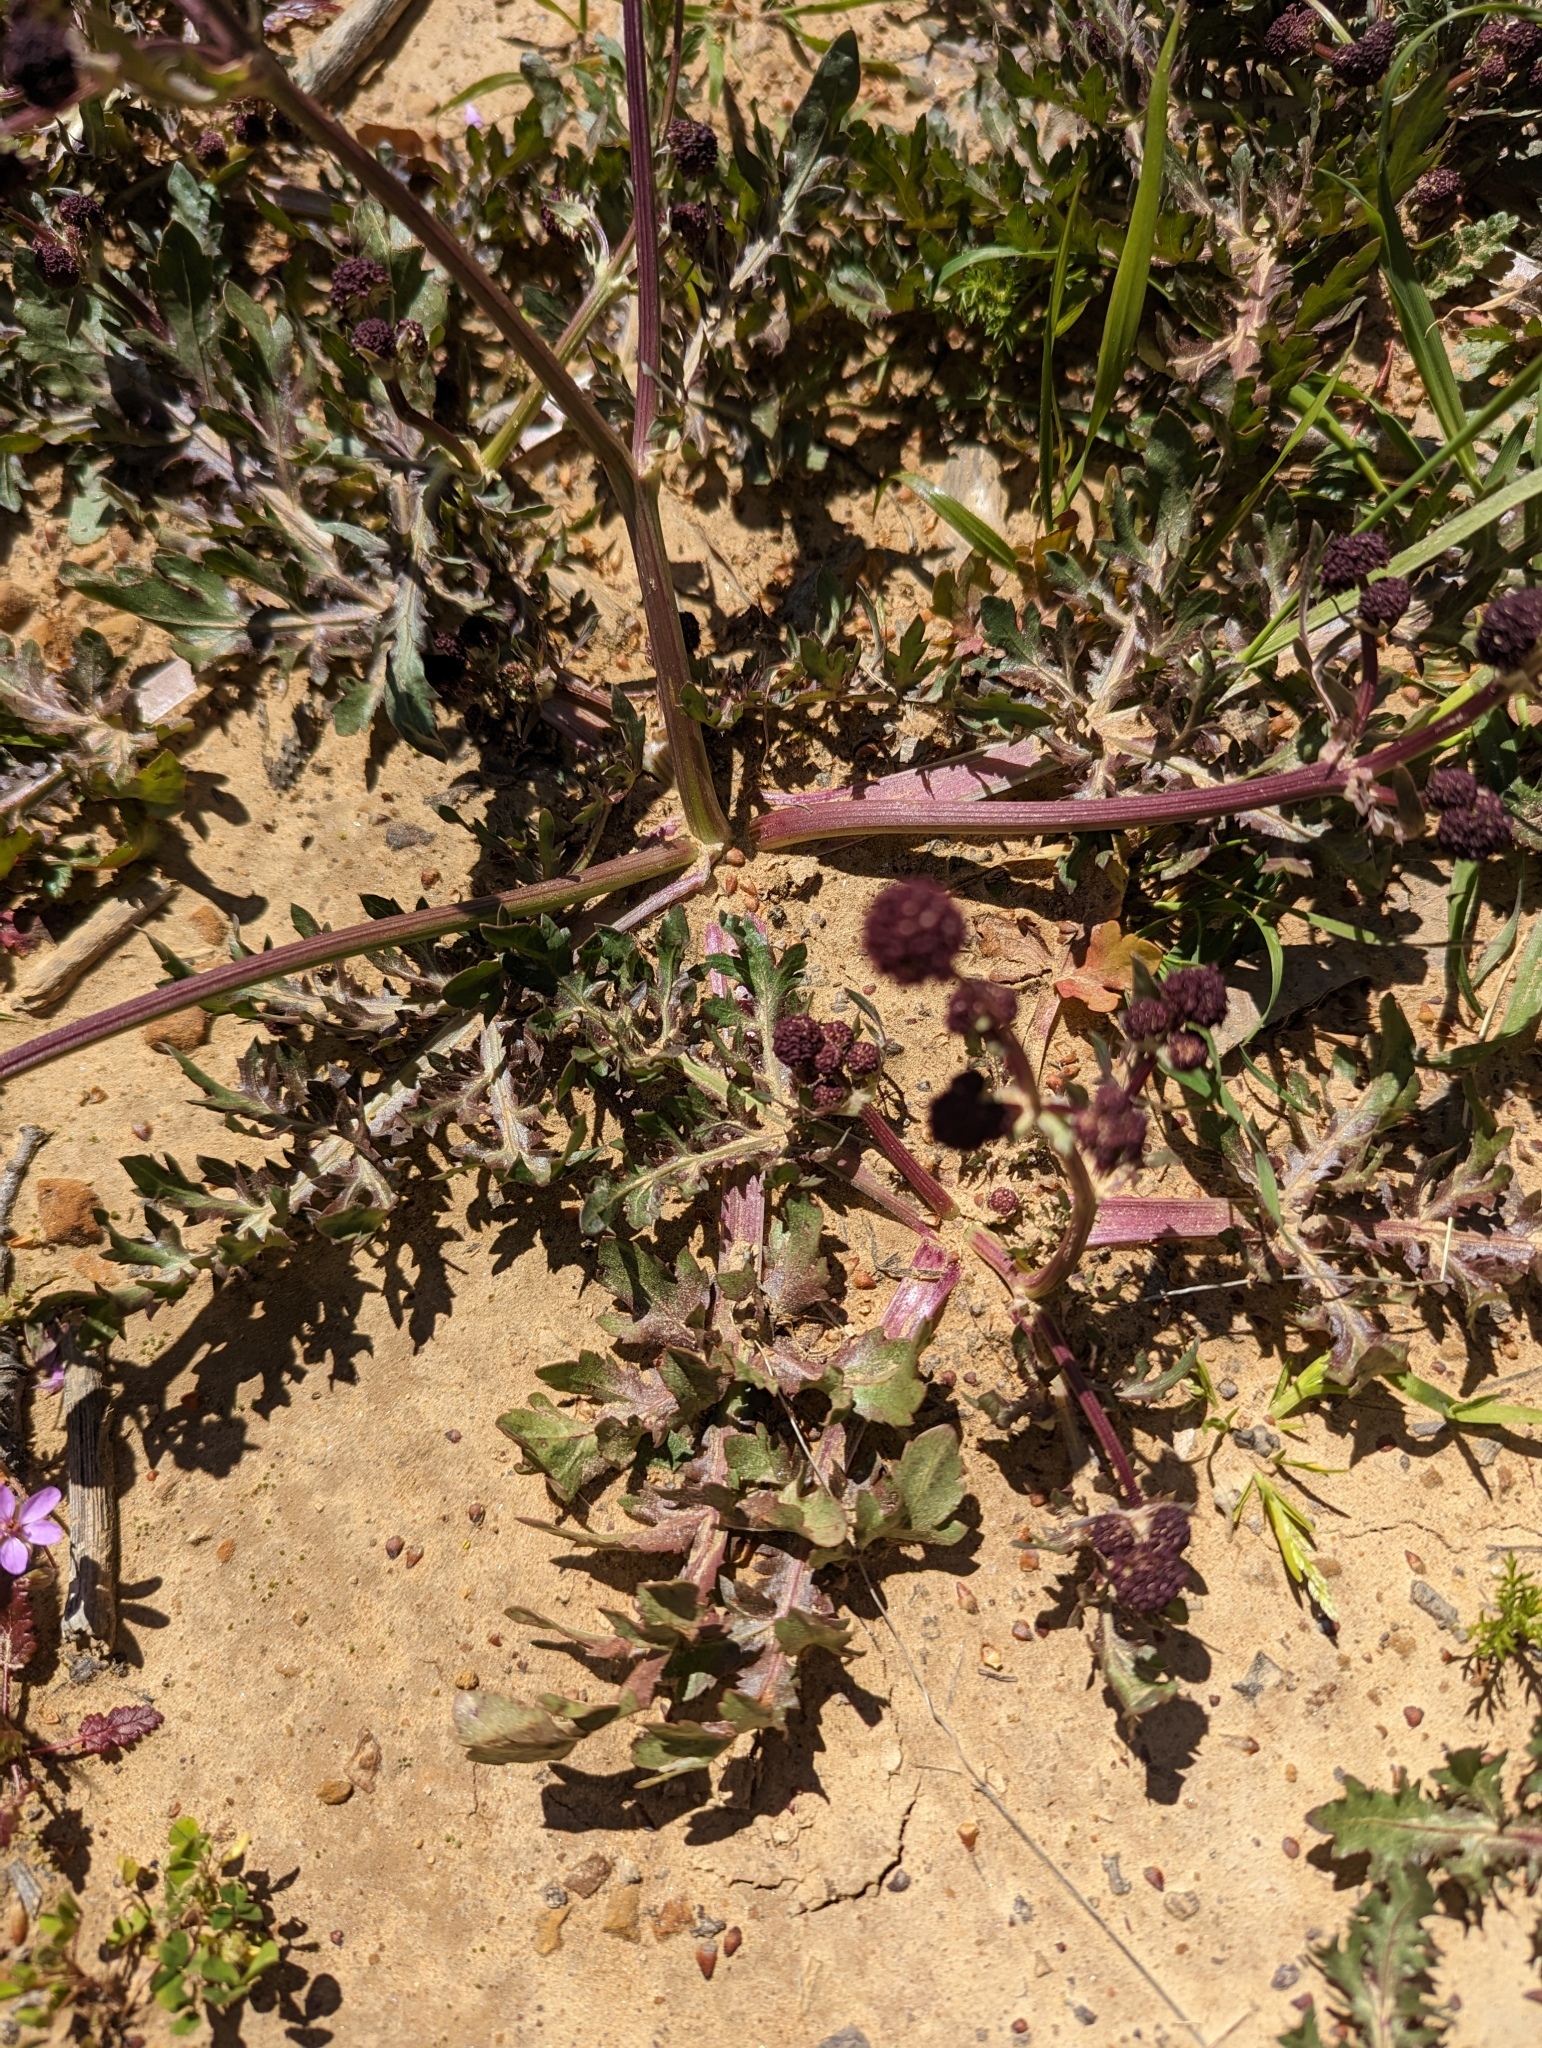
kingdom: Plantae
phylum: Tracheophyta
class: Magnoliopsida
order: Apiales
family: Apiaceae
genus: Sanicula
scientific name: Sanicula bipinnatifida
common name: Shoe-buttons
